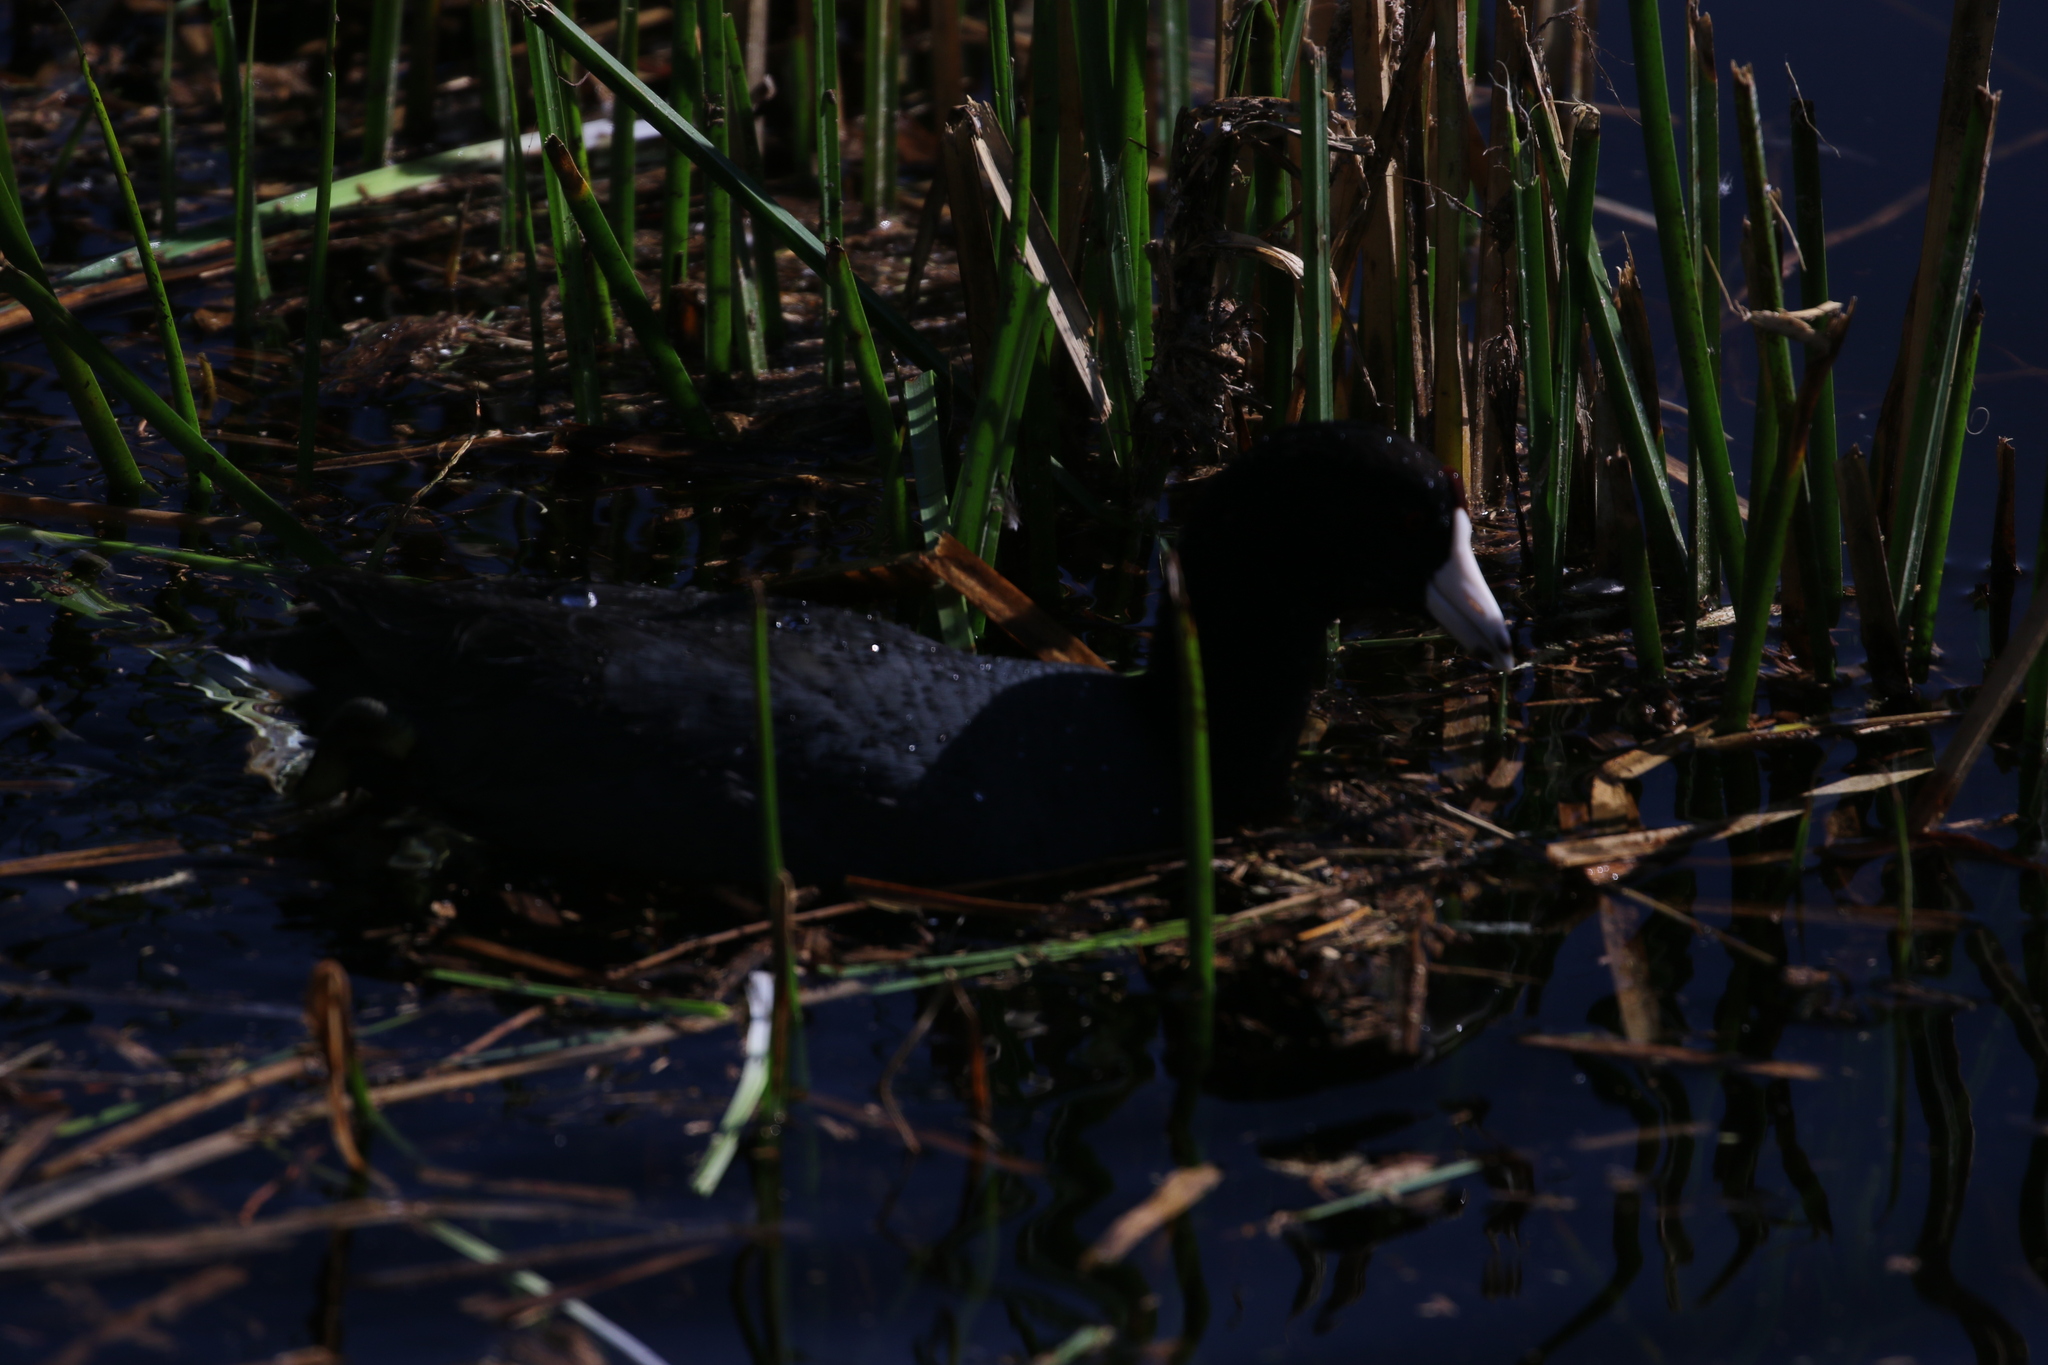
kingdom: Animalia
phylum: Chordata
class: Aves
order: Gruiformes
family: Rallidae
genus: Fulica
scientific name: Fulica americana
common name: American coot
